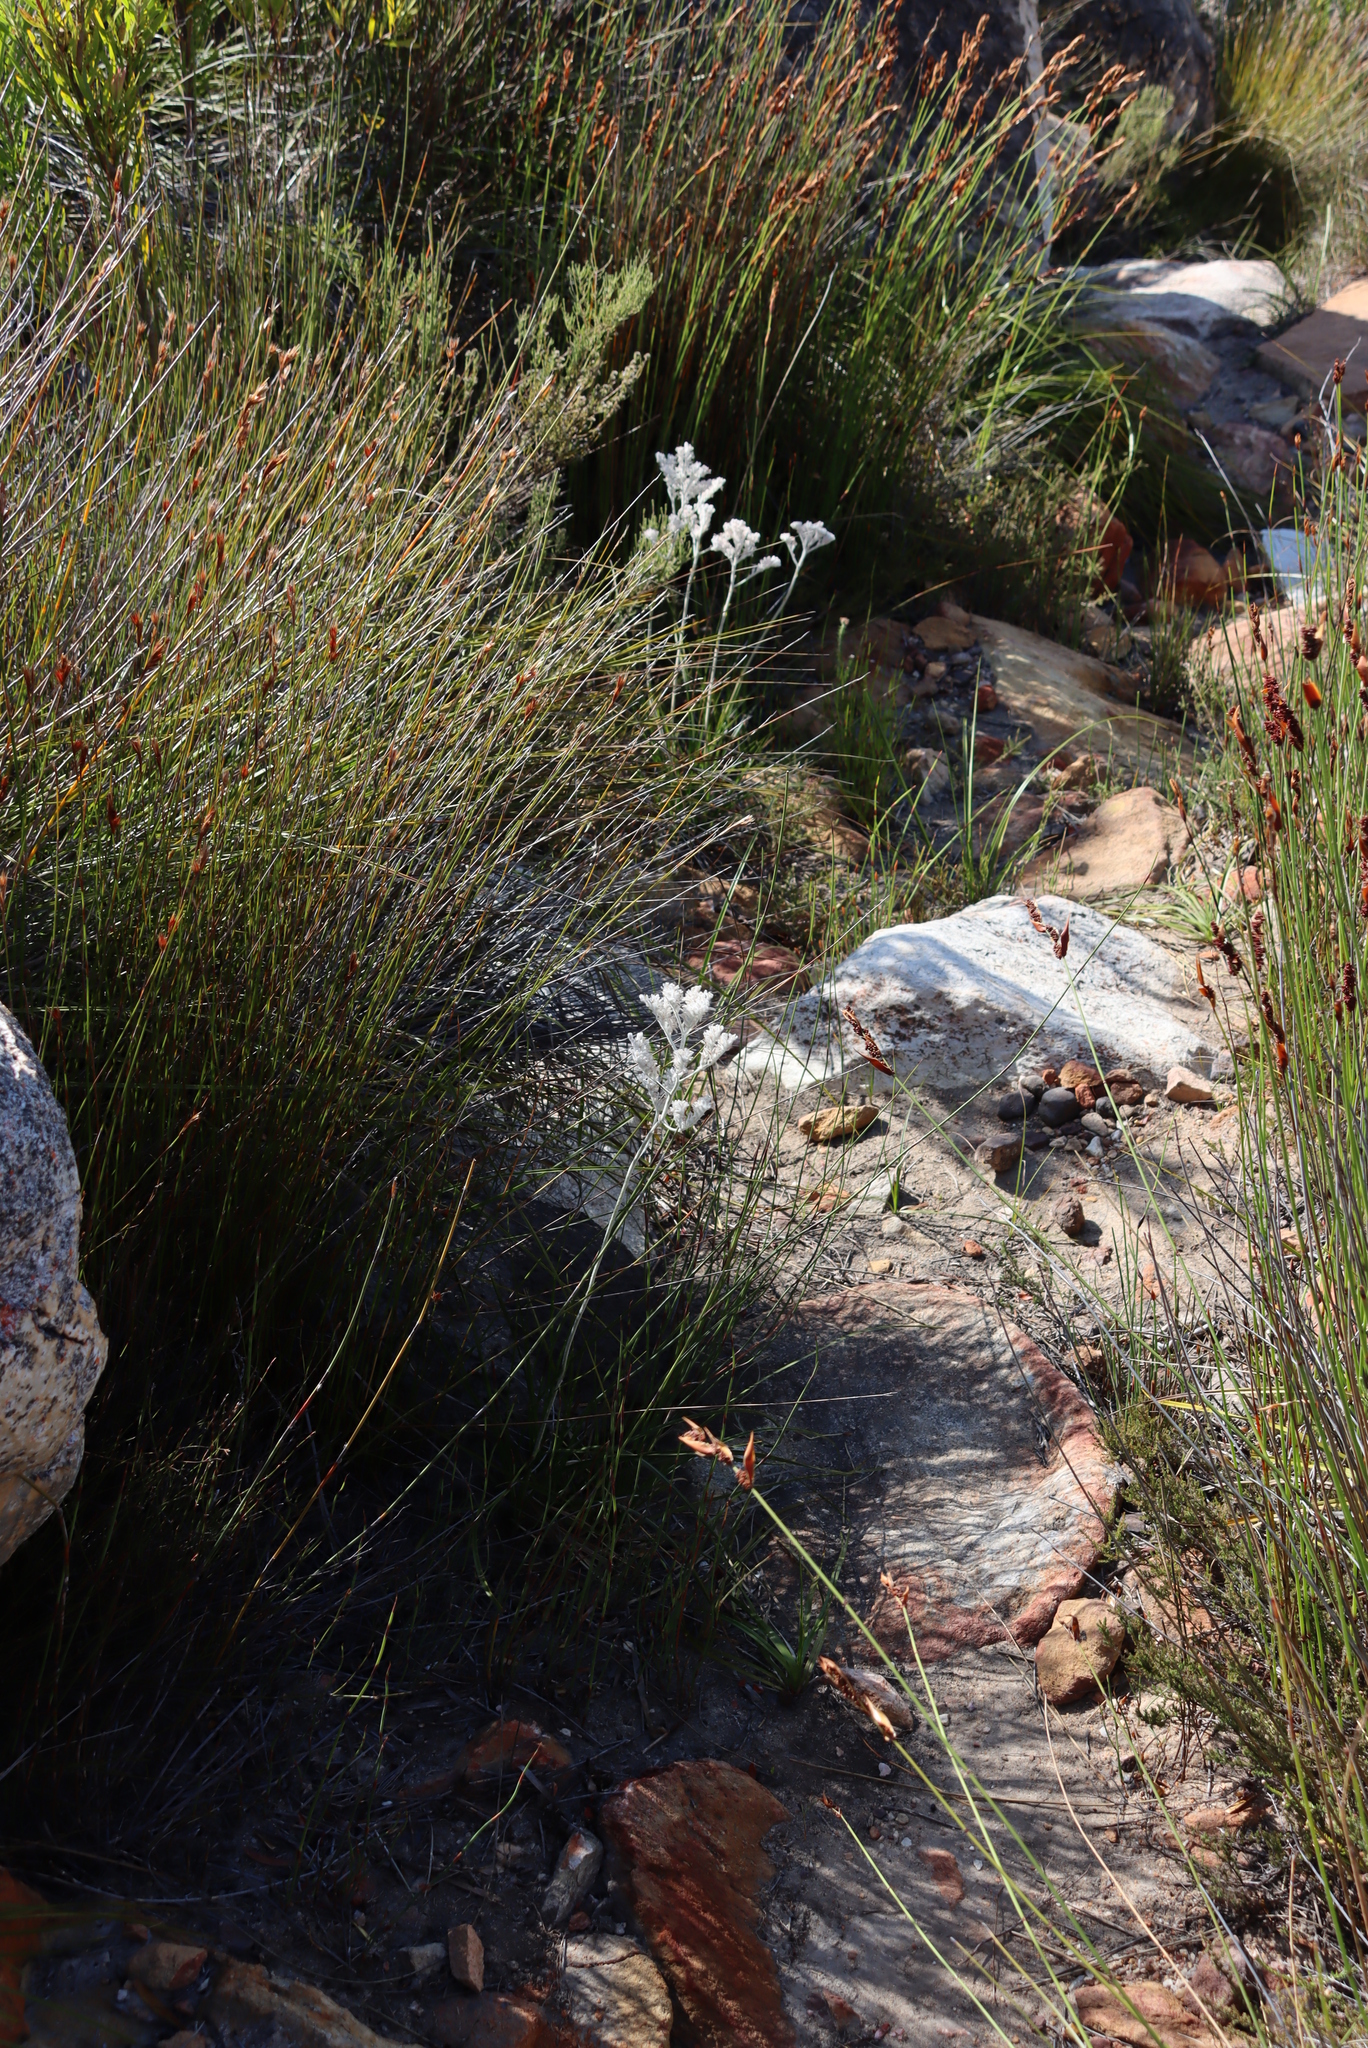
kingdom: Plantae
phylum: Tracheophyta
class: Liliopsida
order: Asparagales
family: Lanariaceae
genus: Lanaria
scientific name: Lanaria lanata
